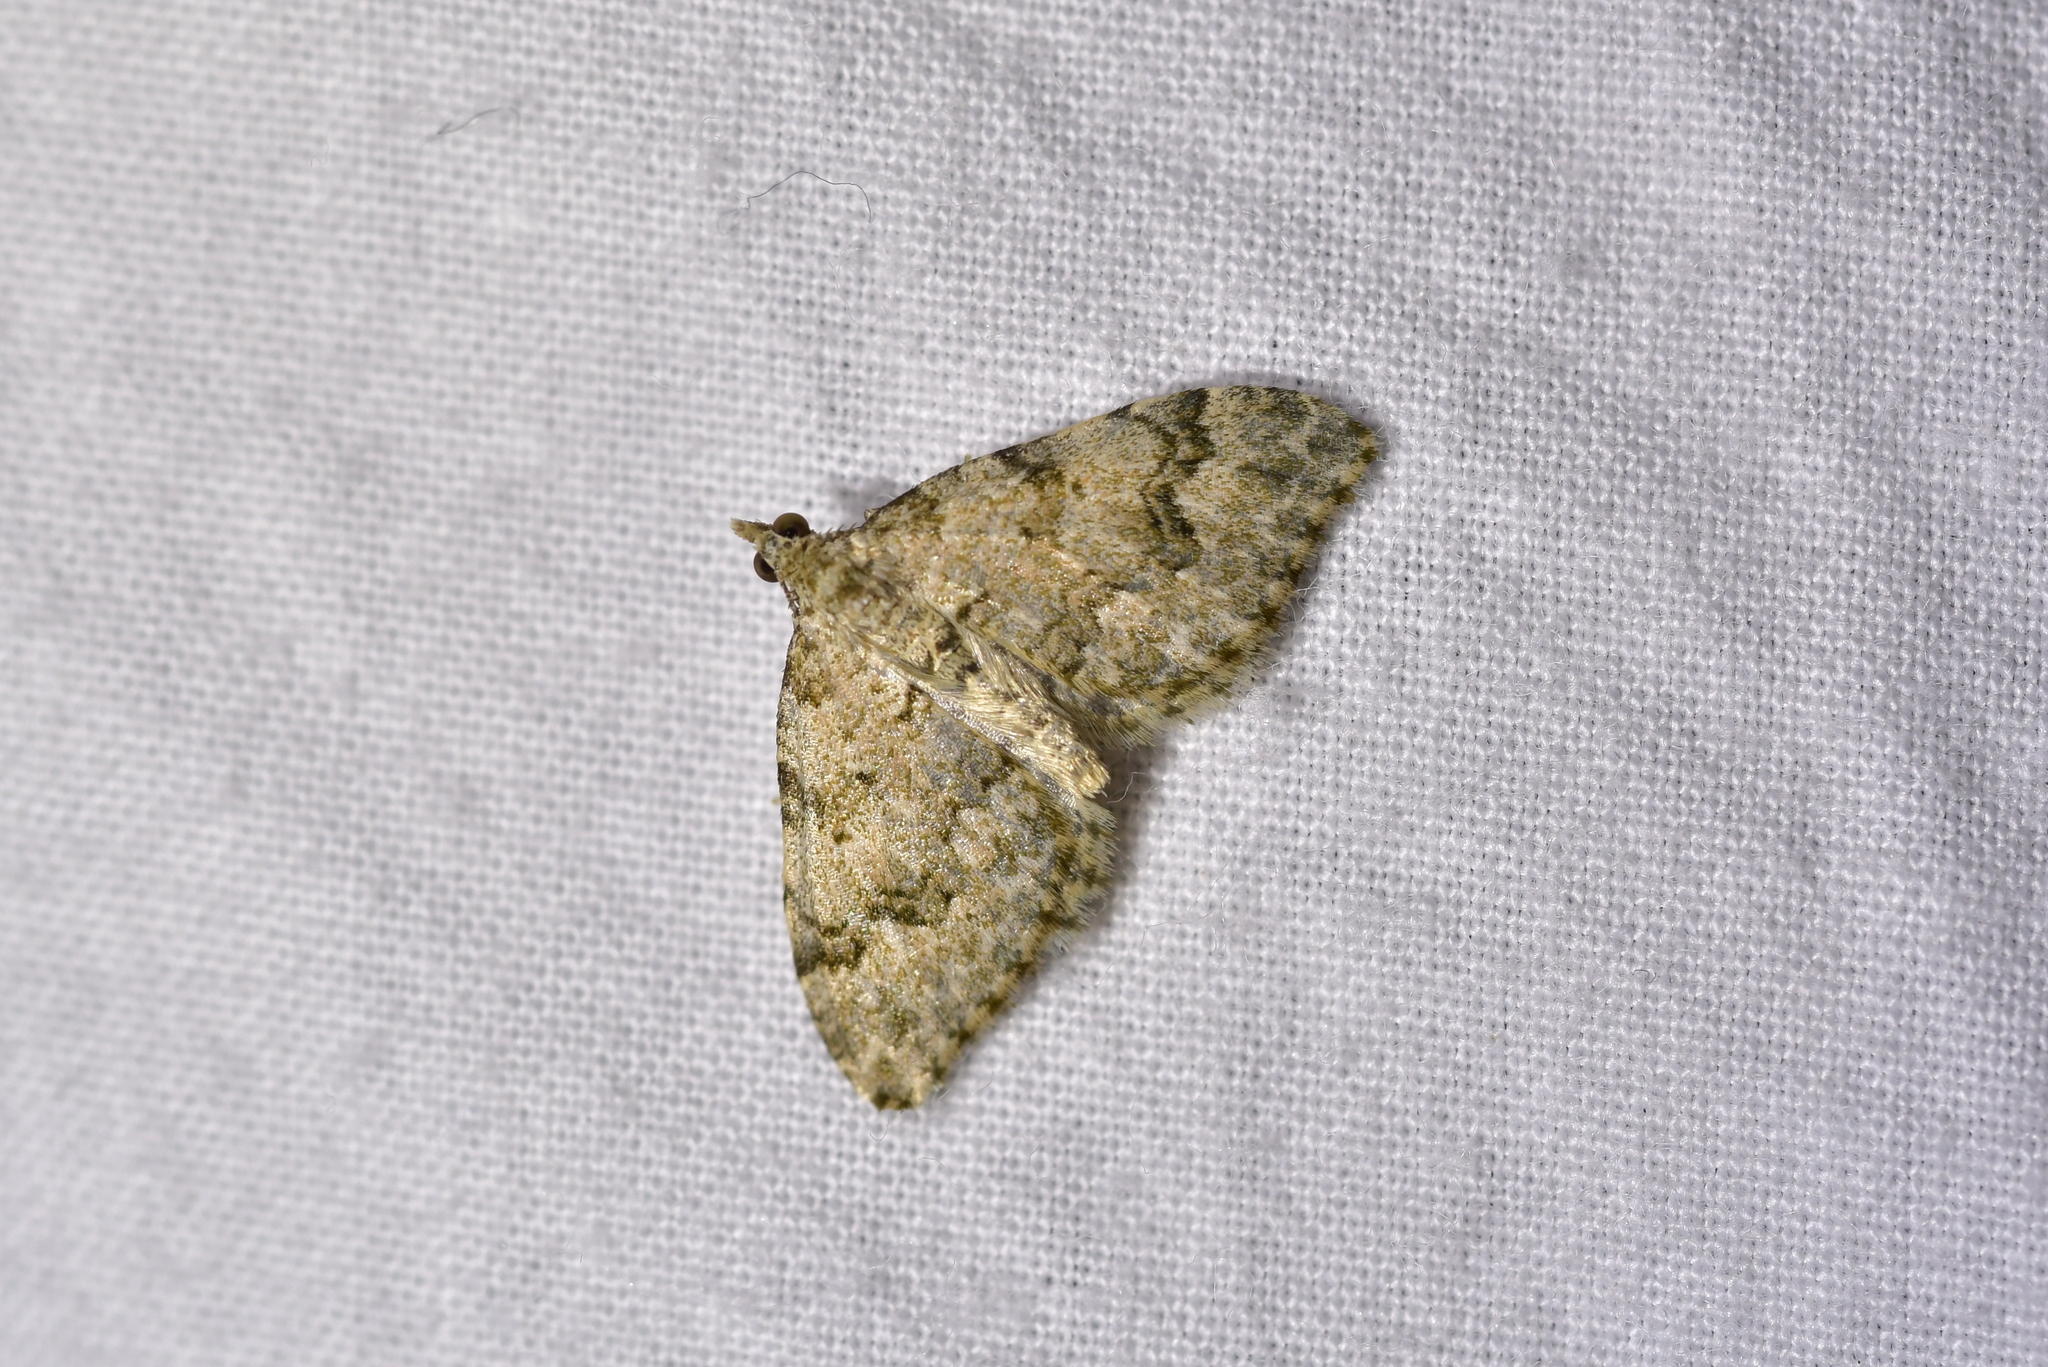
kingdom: Animalia
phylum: Arthropoda
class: Insecta
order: Lepidoptera
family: Geometridae
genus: Helastia
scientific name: Helastia cinerearia
